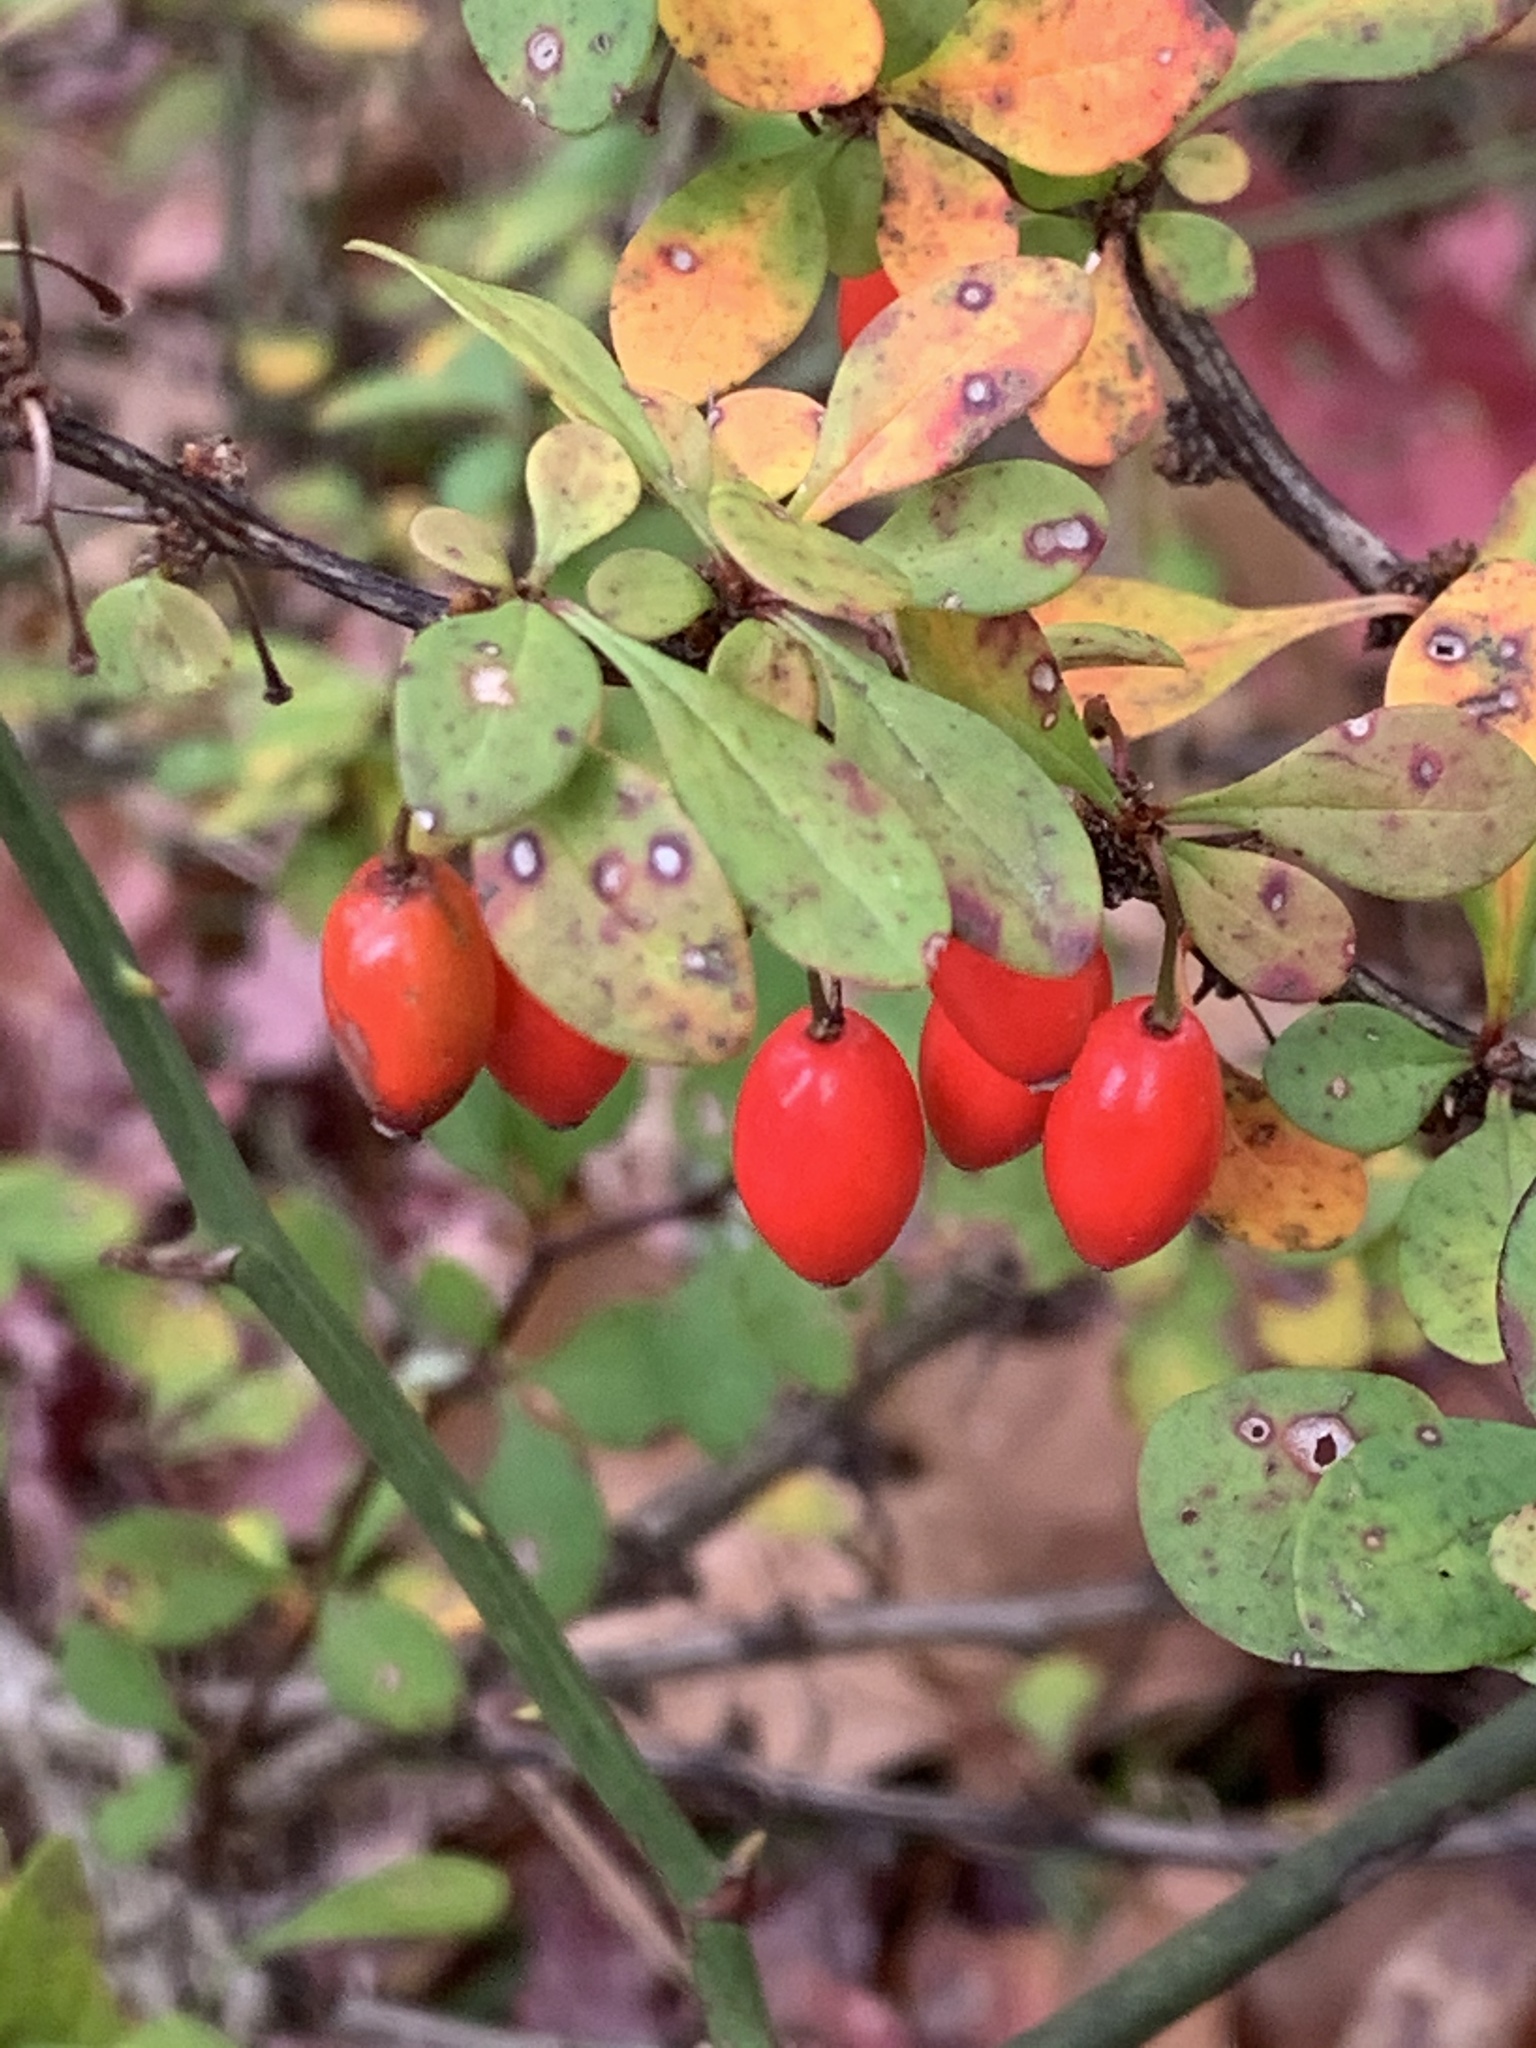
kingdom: Plantae
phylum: Tracheophyta
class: Magnoliopsida
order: Ranunculales
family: Berberidaceae
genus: Berberis
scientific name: Berberis thunbergii
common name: Japanese barberry
